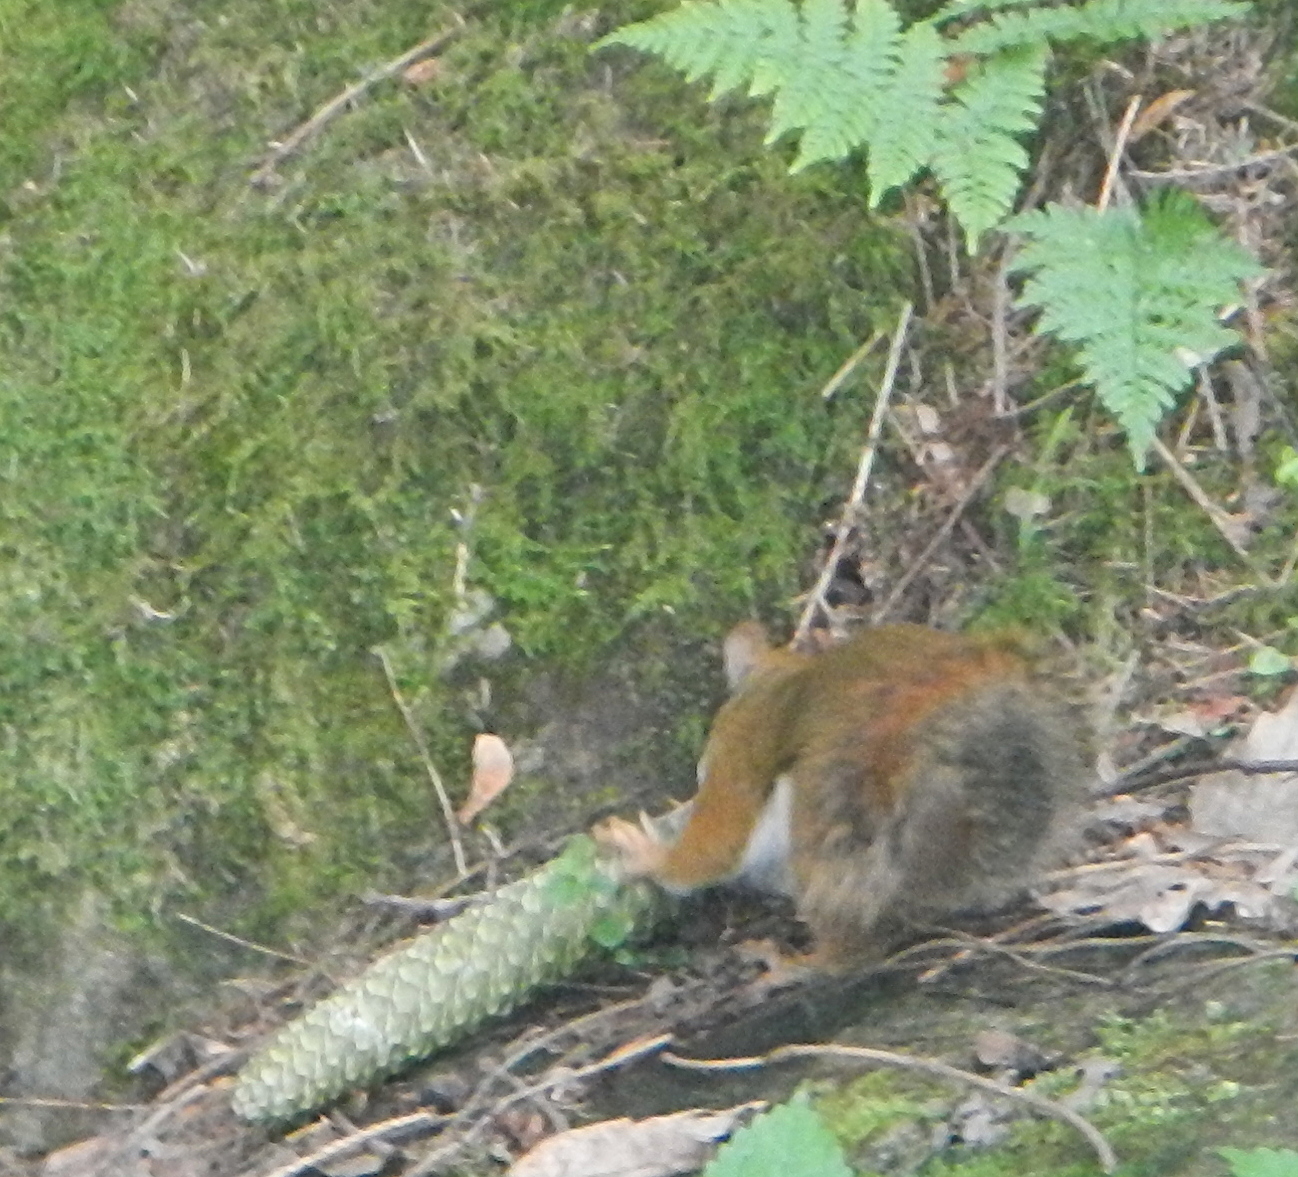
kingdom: Animalia
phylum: Chordata
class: Mammalia
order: Rodentia
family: Sciuridae
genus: Tamiasciurus
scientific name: Tamiasciurus hudsonicus
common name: Red squirrel
